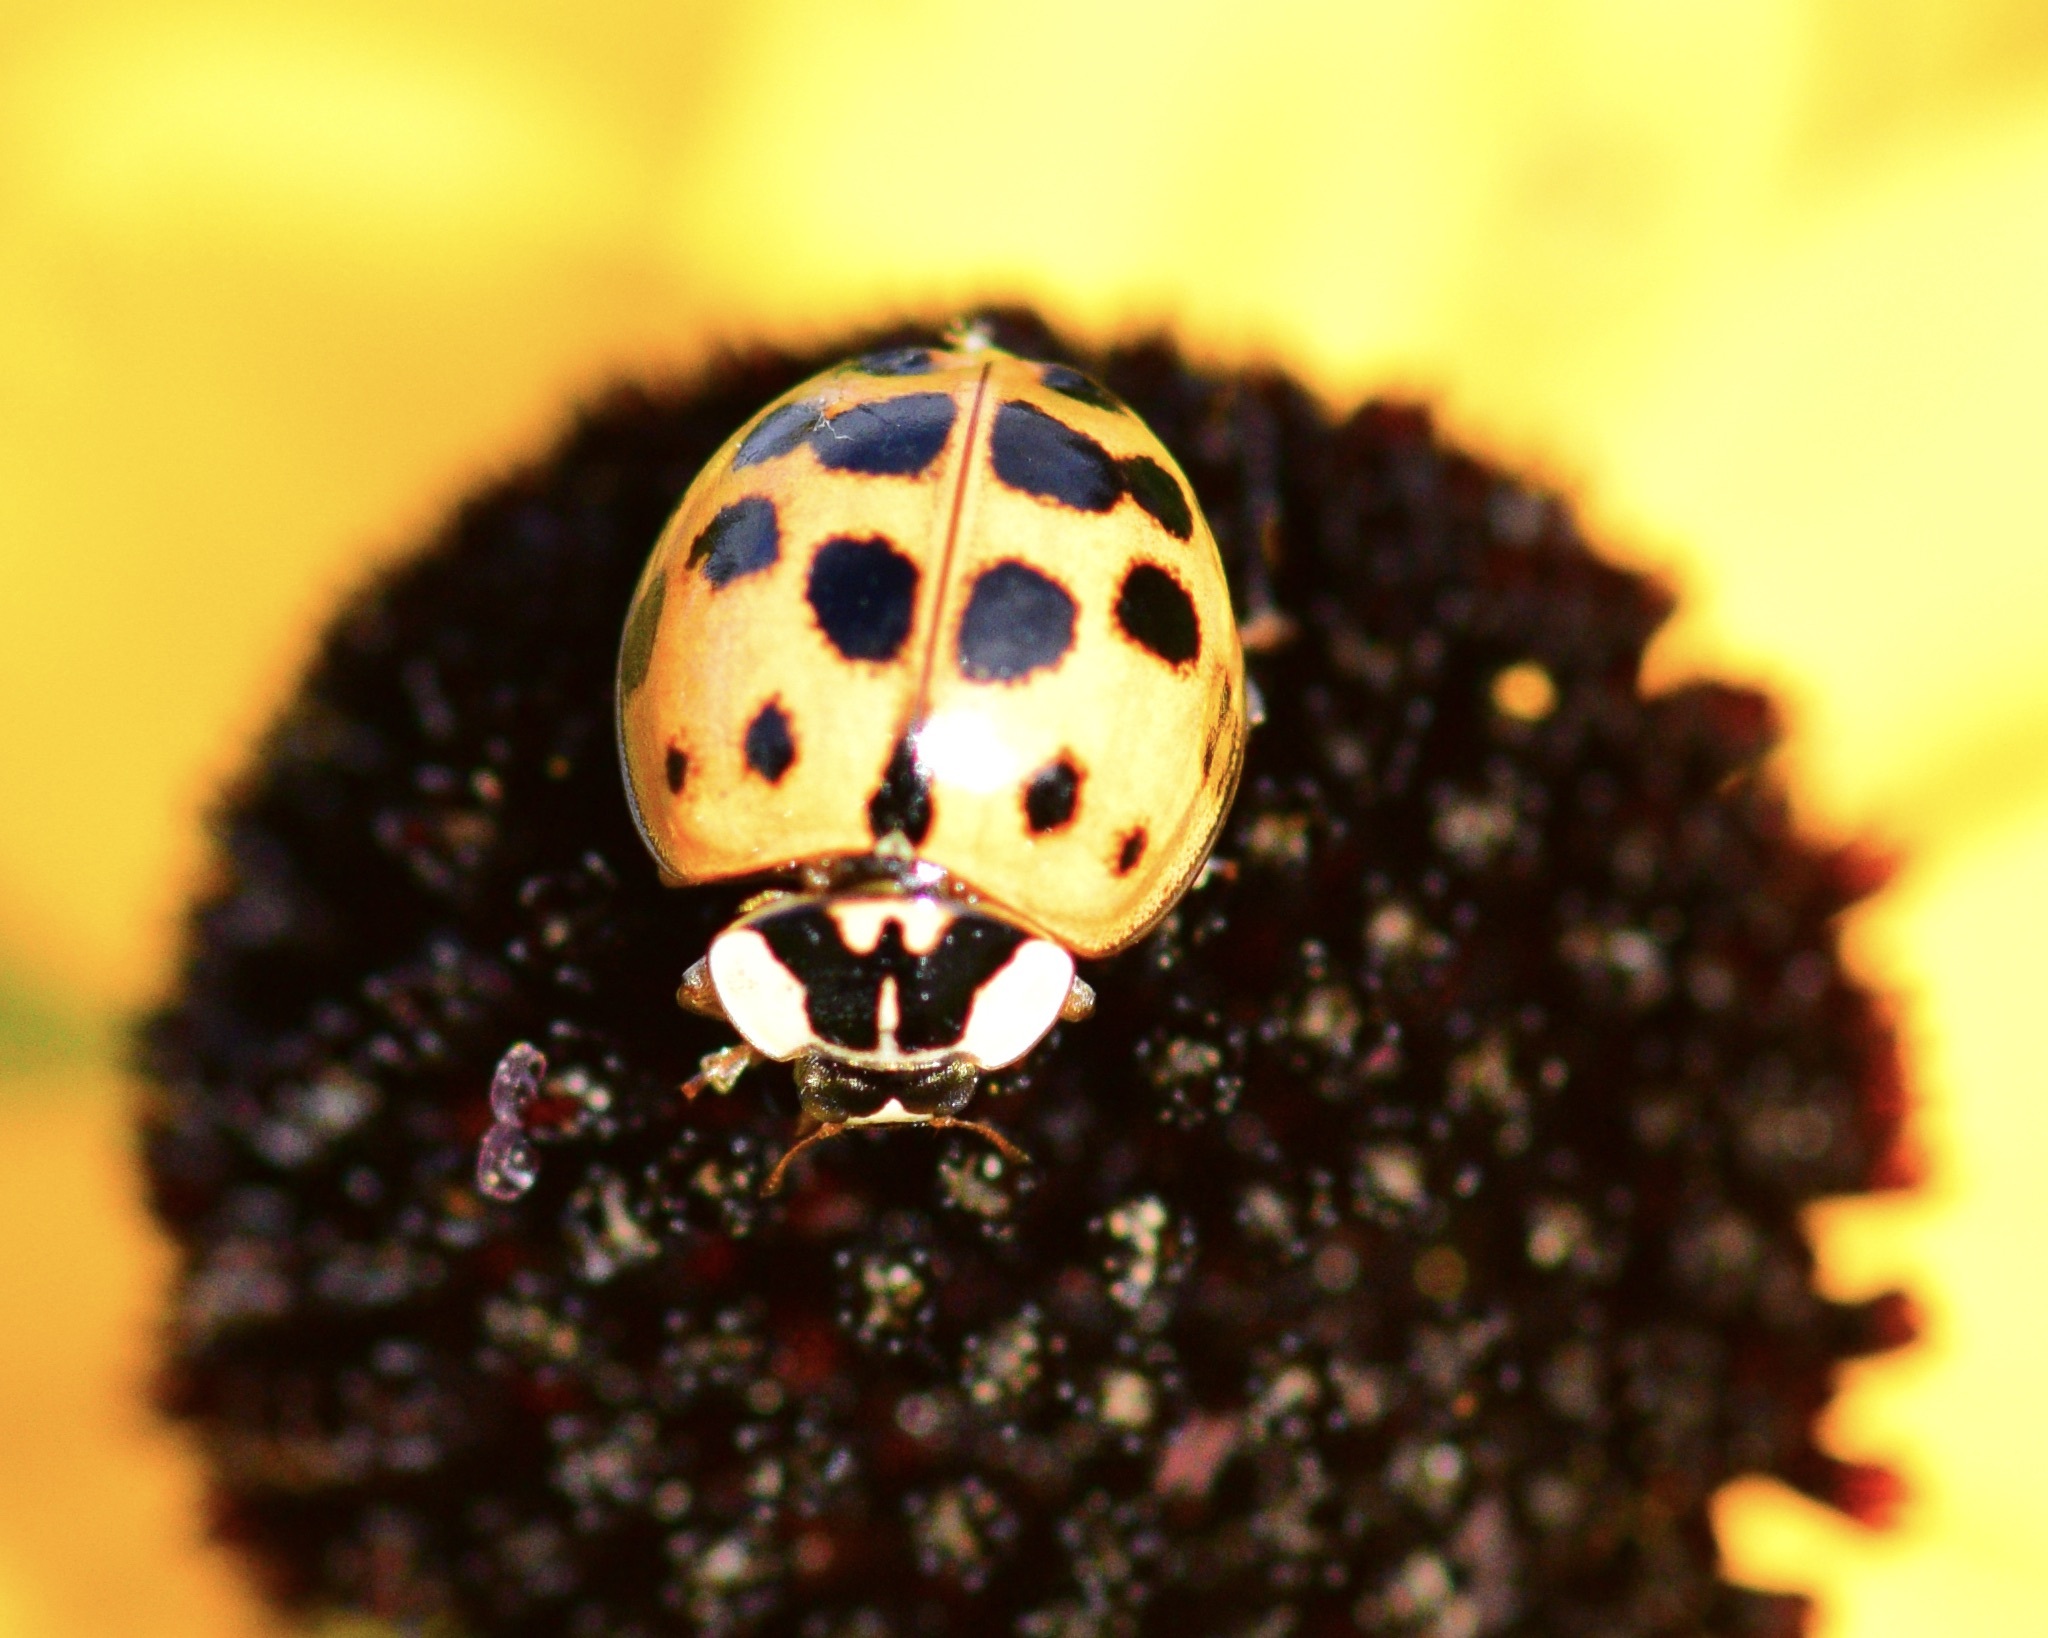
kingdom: Animalia
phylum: Arthropoda
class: Insecta
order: Coleoptera
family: Coccinellidae
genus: Harmonia
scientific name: Harmonia axyridis
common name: Harlequin ladybird
